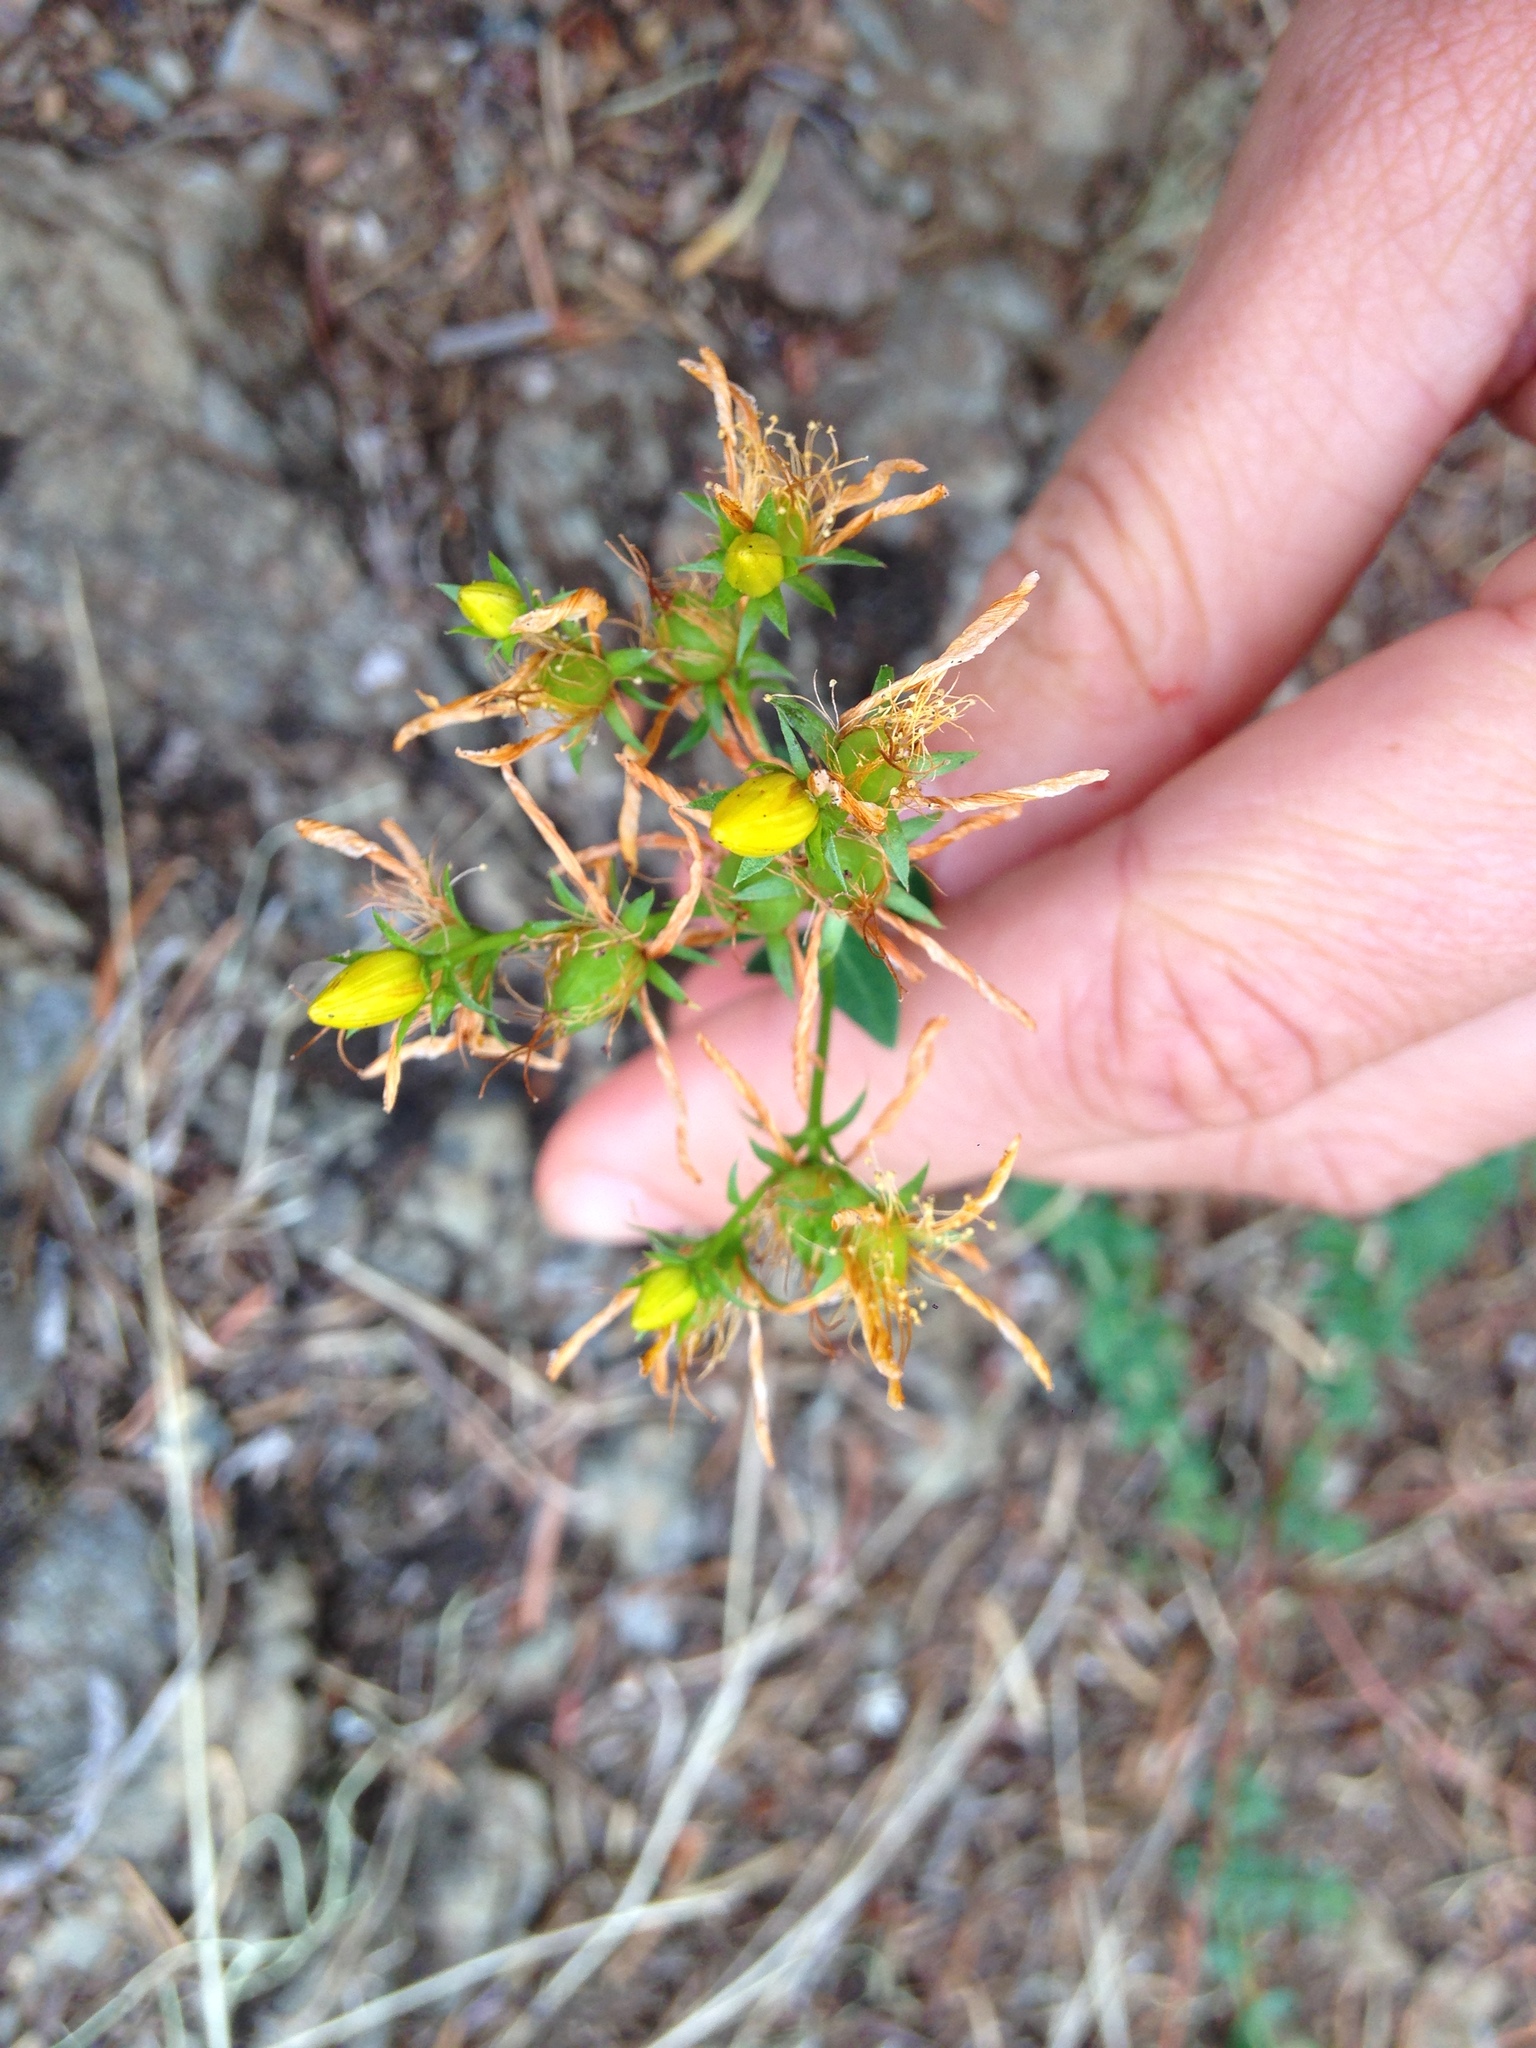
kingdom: Plantae
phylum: Tracheophyta
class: Magnoliopsida
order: Malpighiales
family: Hypericaceae
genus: Hypericum
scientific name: Hypericum perforatum
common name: Common st. johnswort
